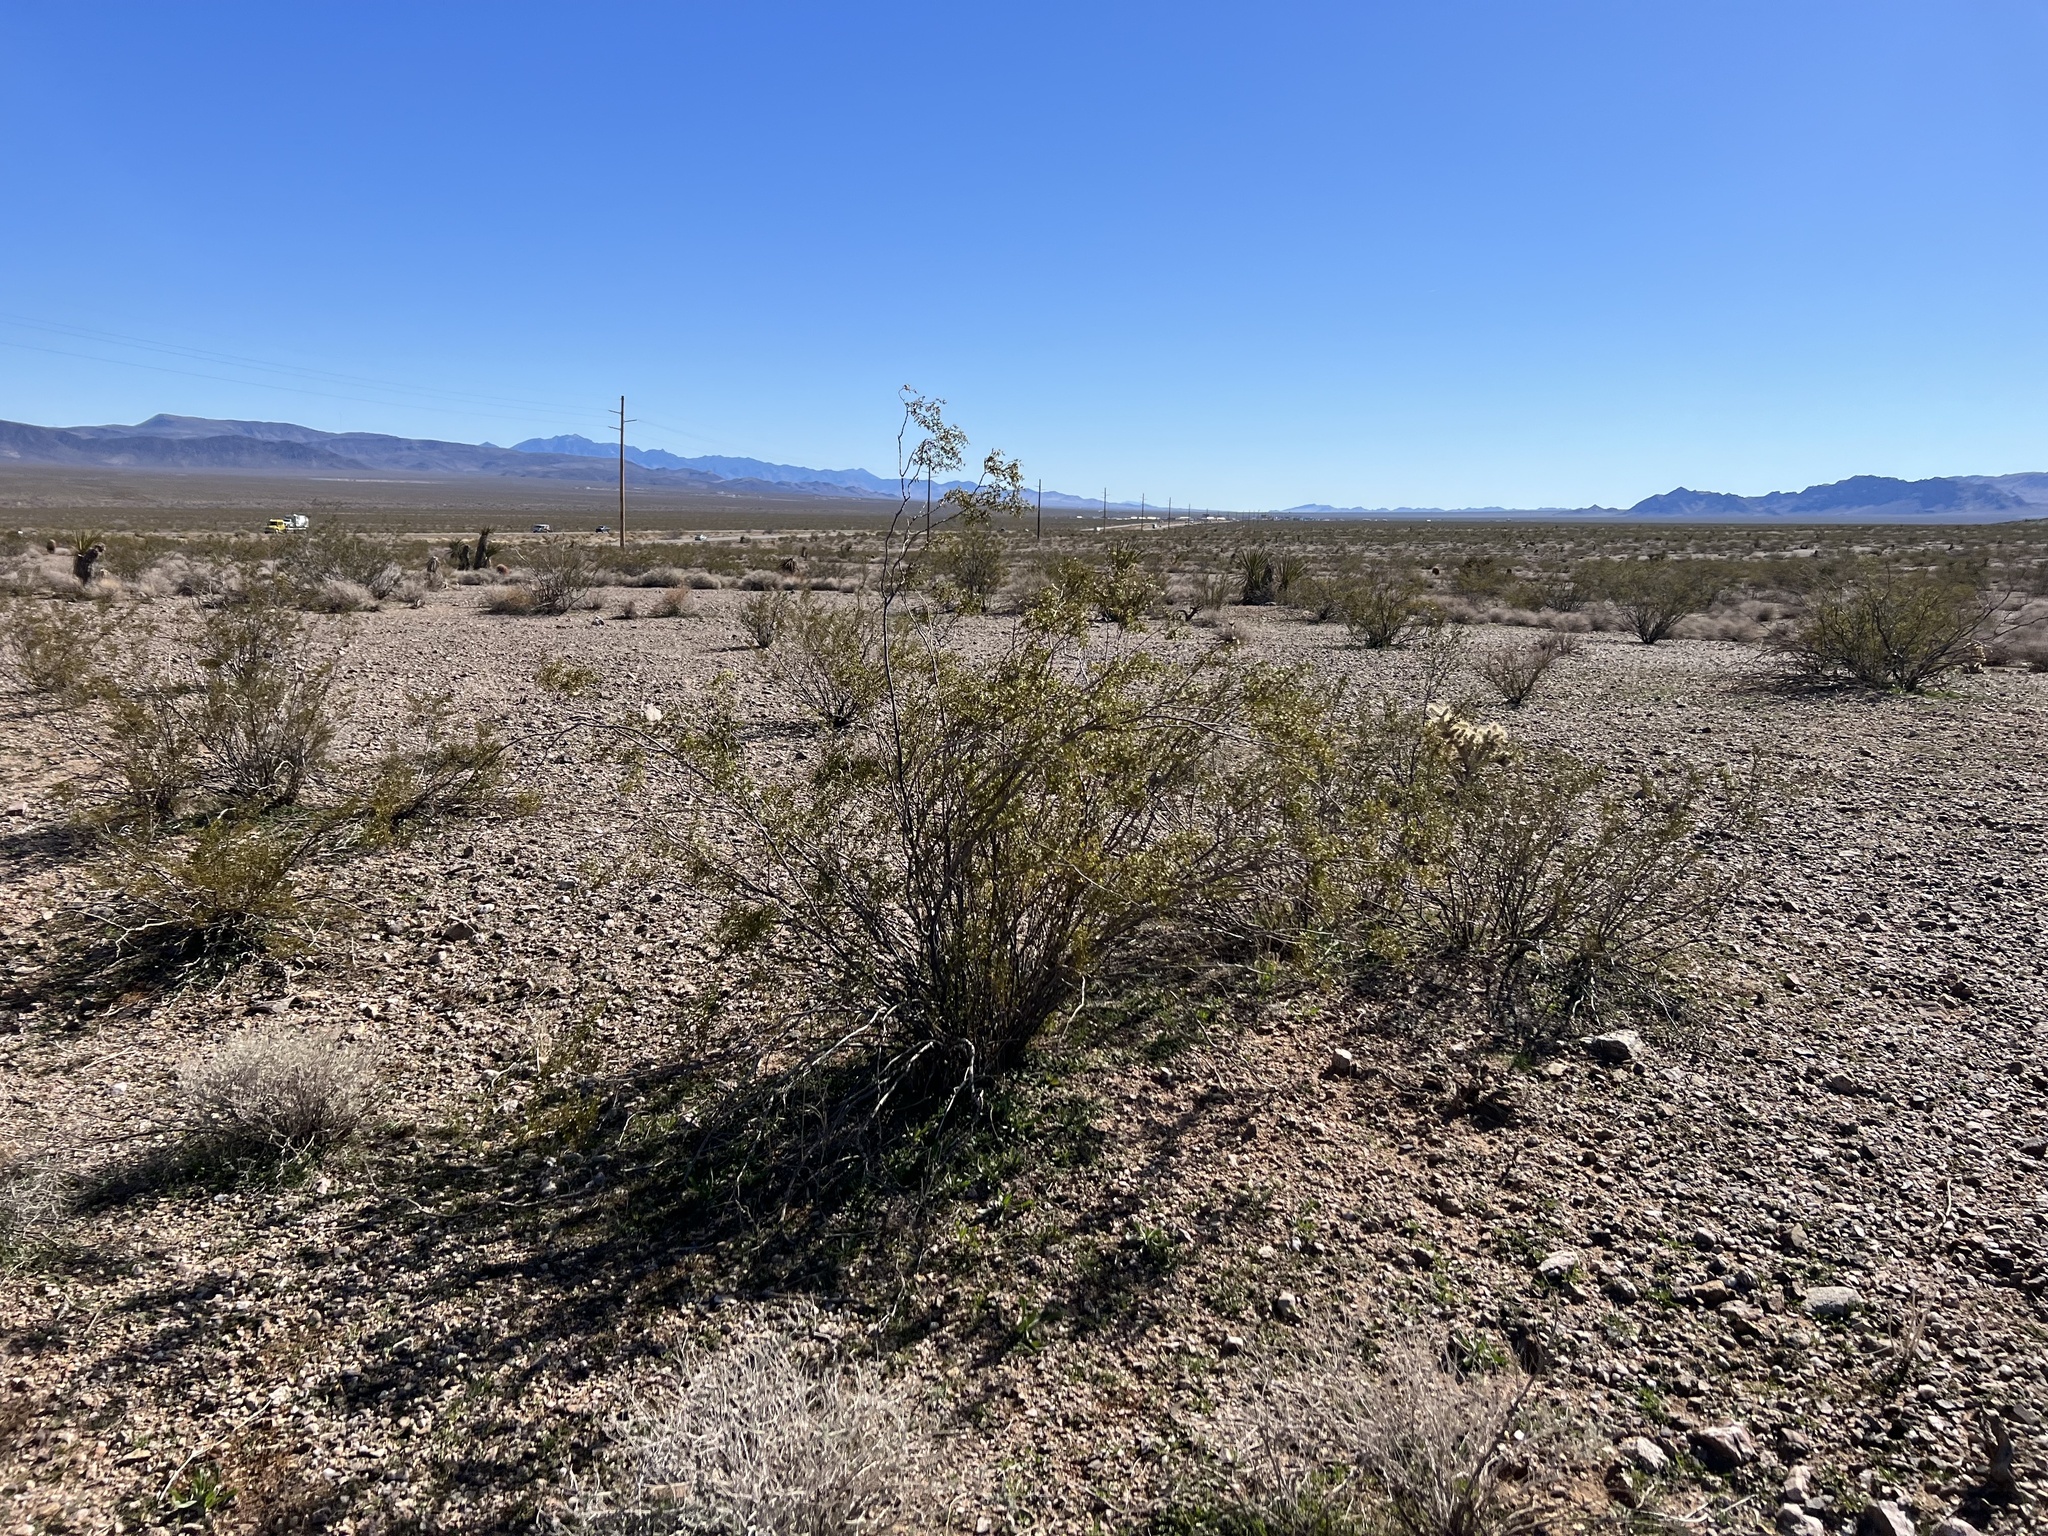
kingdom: Plantae
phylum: Tracheophyta
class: Magnoliopsida
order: Zygophyllales
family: Zygophyllaceae
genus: Larrea
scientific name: Larrea tridentata
